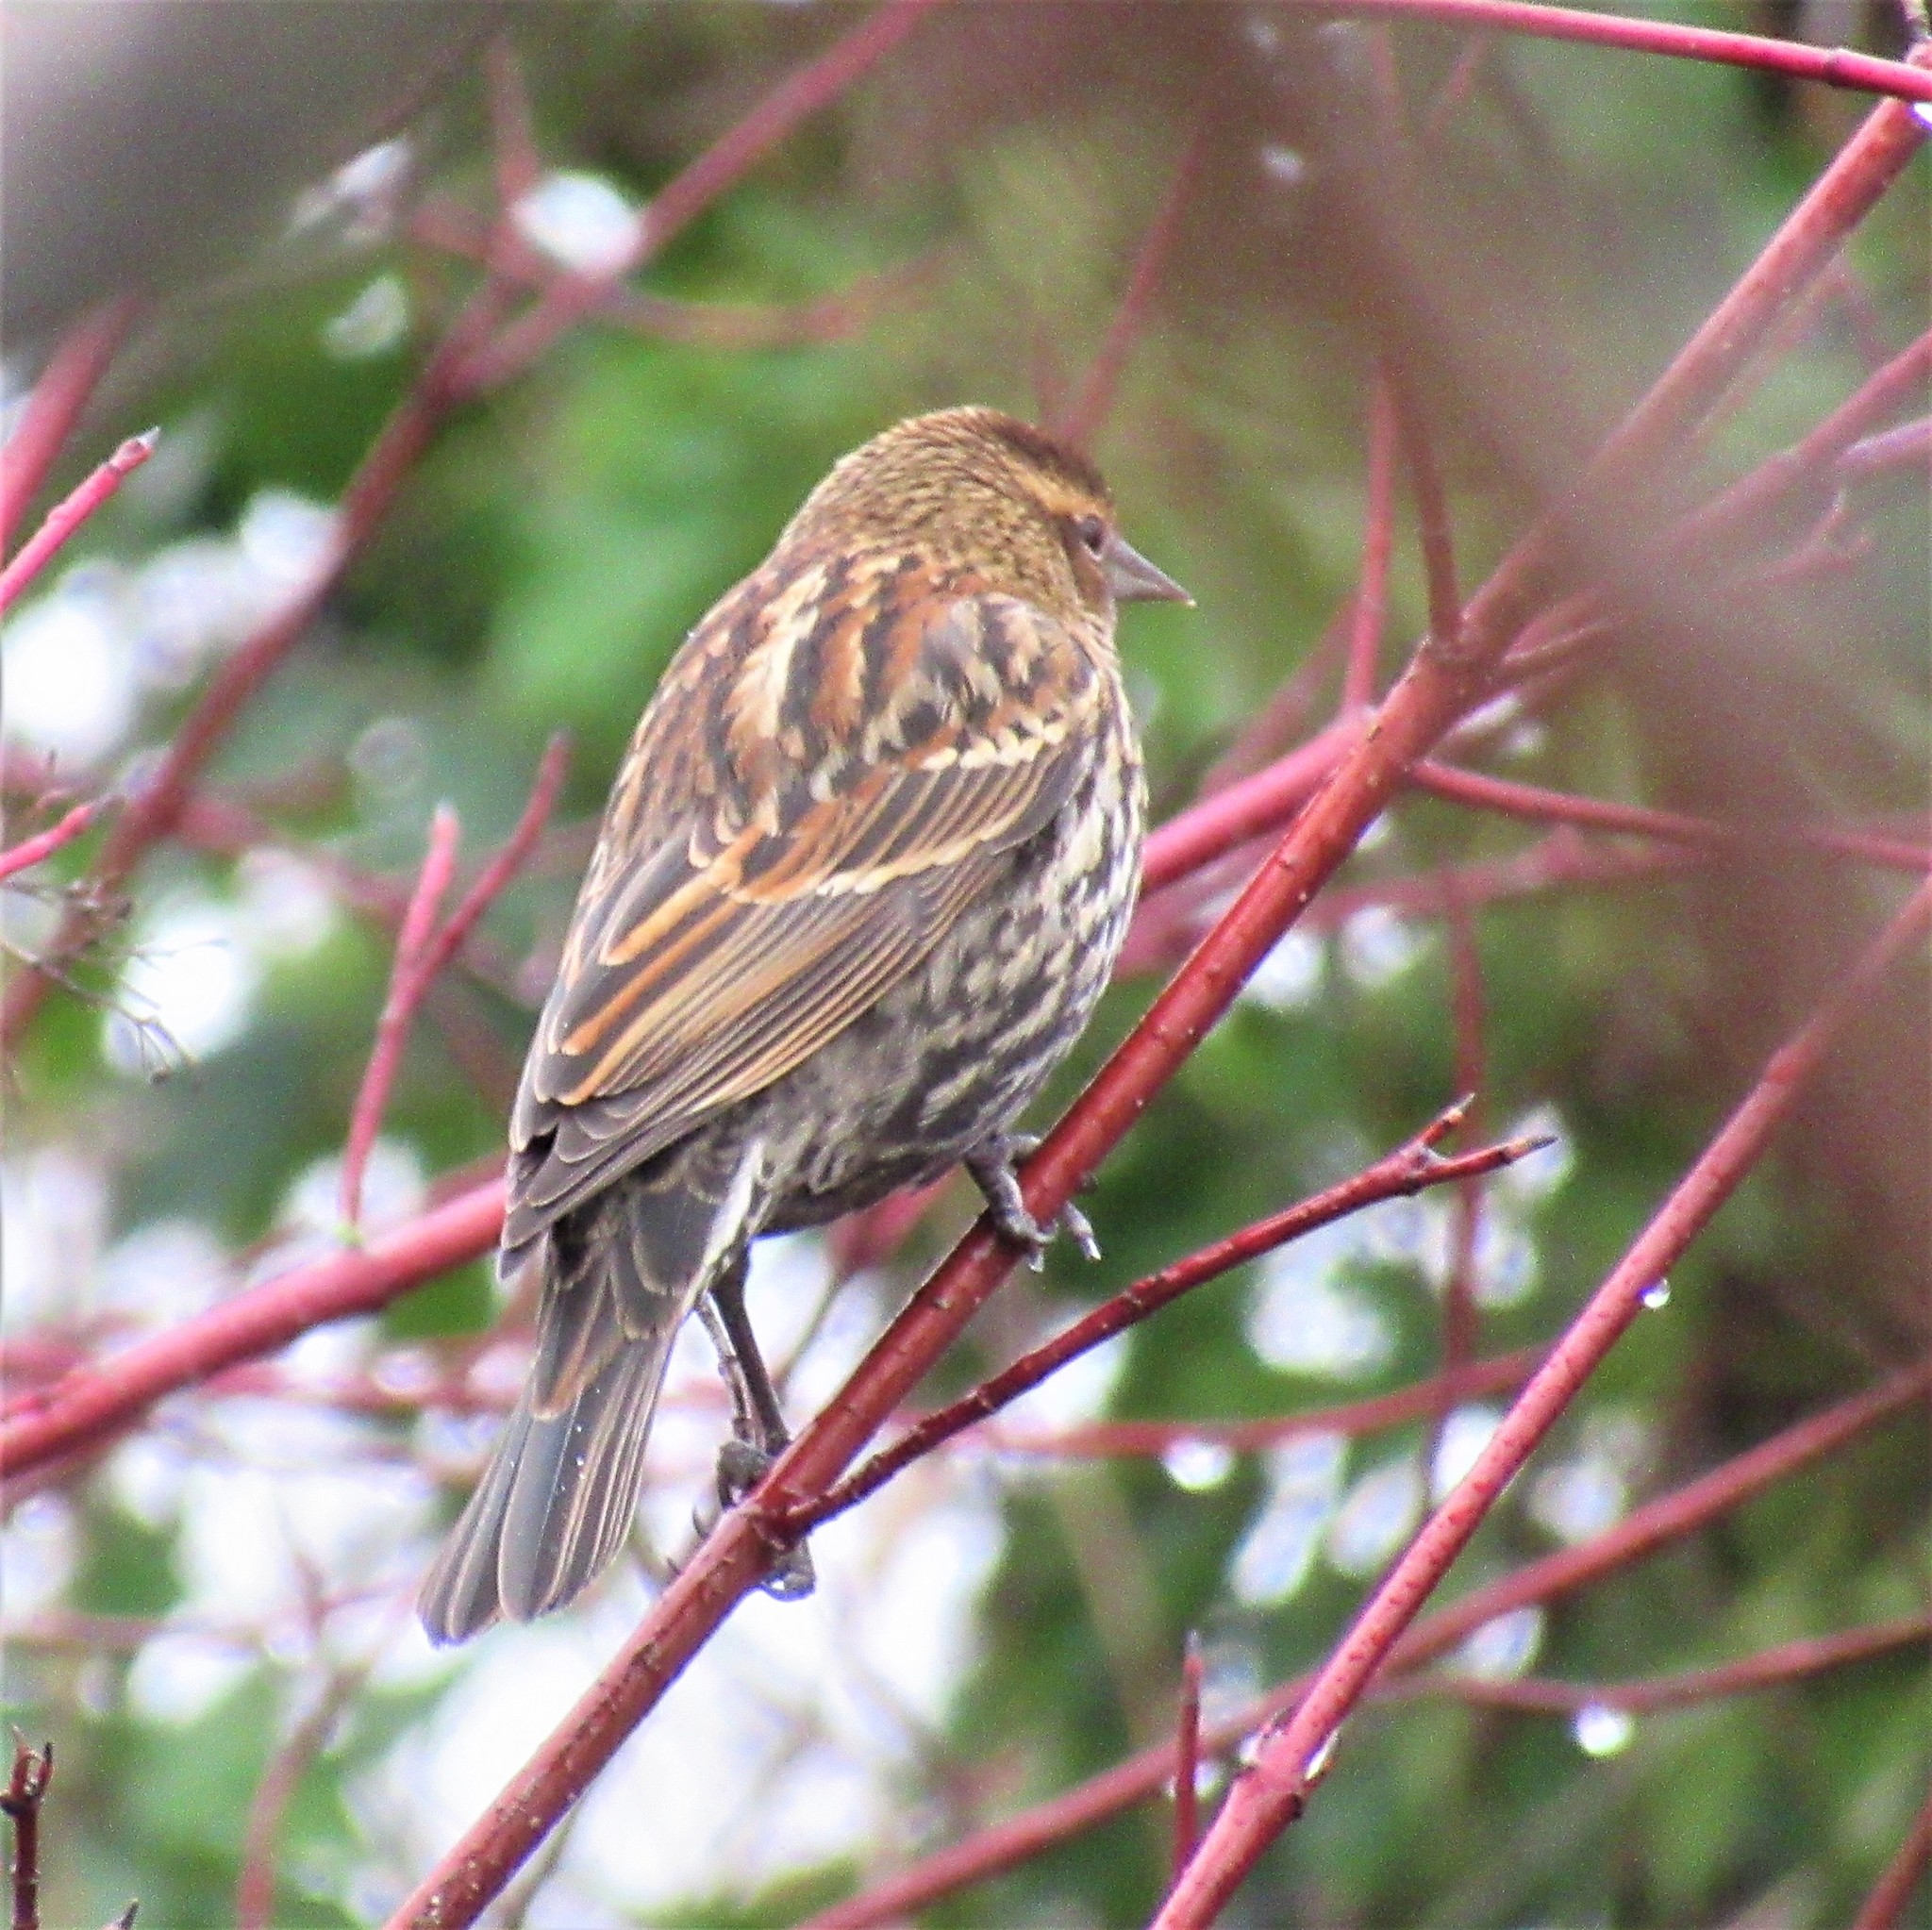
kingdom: Animalia
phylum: Chordata
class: Aves
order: Passeriformes
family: Icteridae
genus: Agelaius
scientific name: Agelaius phoeniceus
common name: Red-winged blackbird
